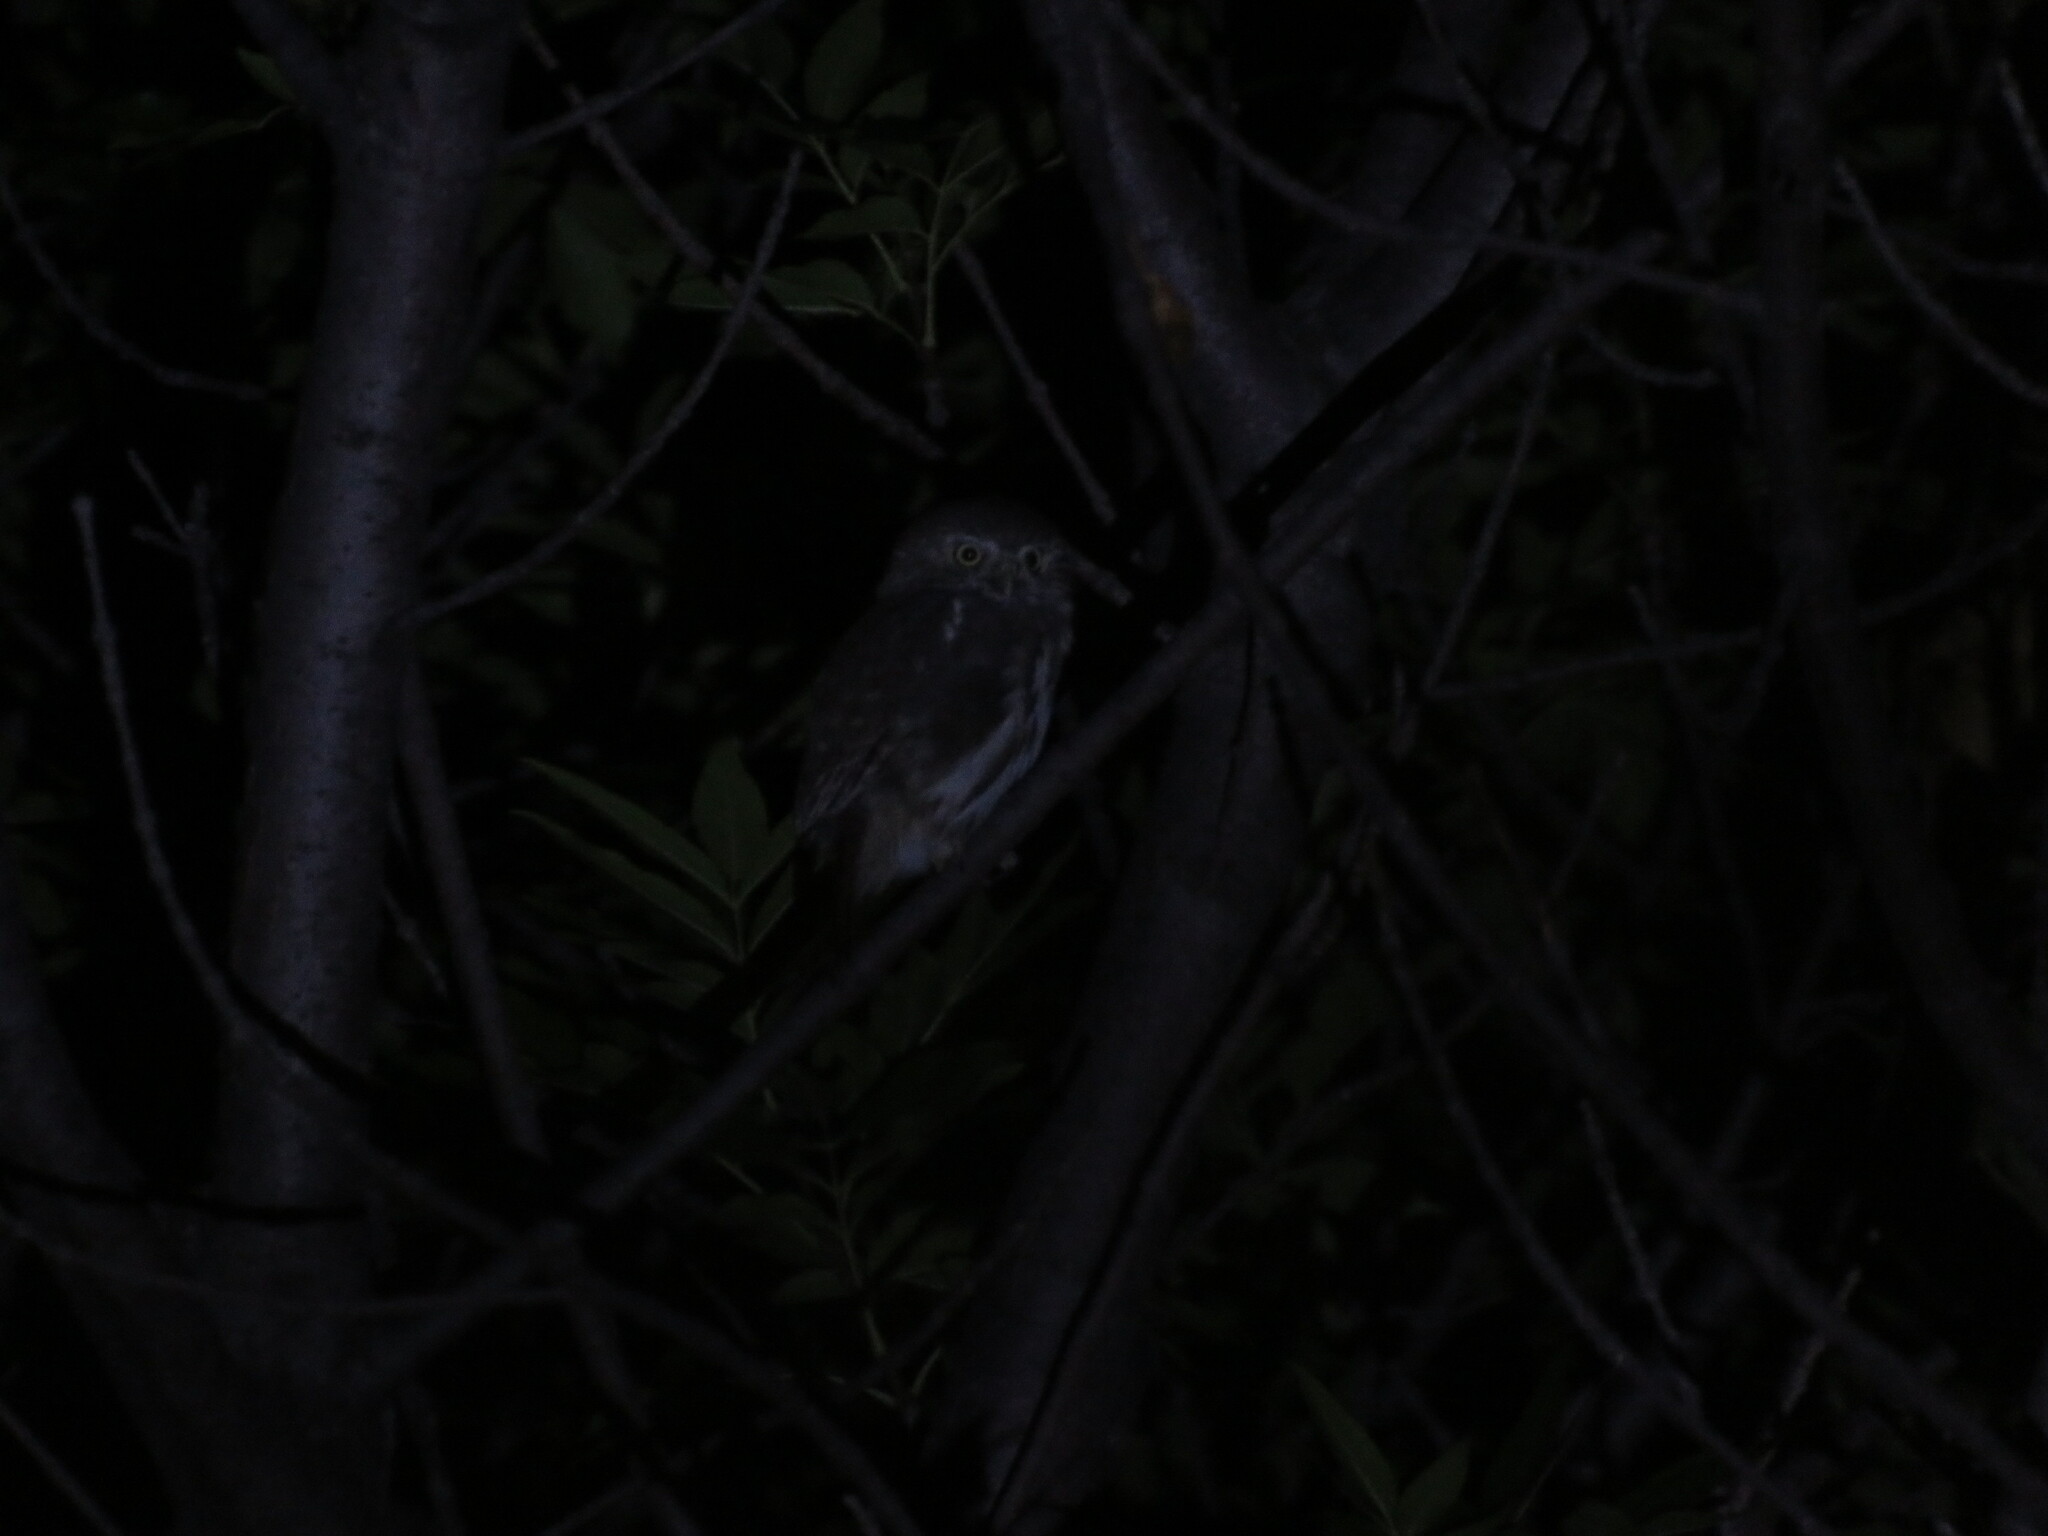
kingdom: Animalia
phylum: Chordata
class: Aves
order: Strigiformes
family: Strigidae
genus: Glaucidium
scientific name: Glaucidium brasilianum
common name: Ferruginous pygmy-owl
